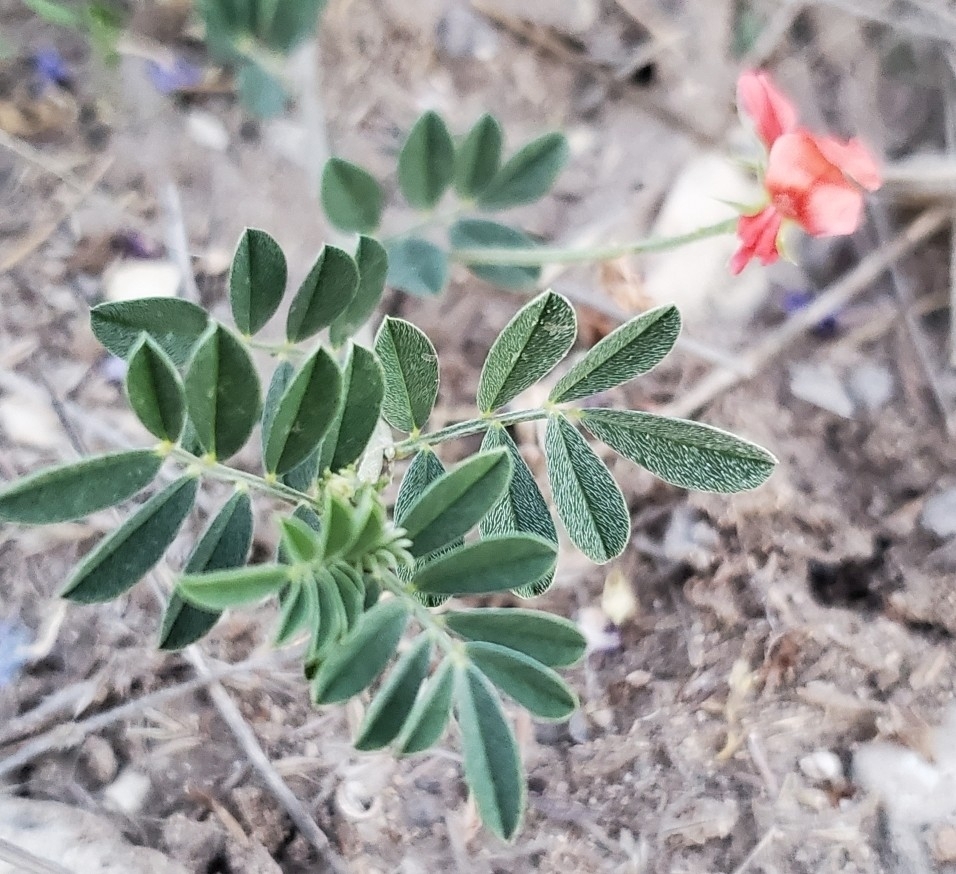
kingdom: Plantae
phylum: Tracheophyta
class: Magnoliopsida
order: Fabales
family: Fabaceae
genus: Indigofera
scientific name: Indigofera miniata
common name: Coast indigo
